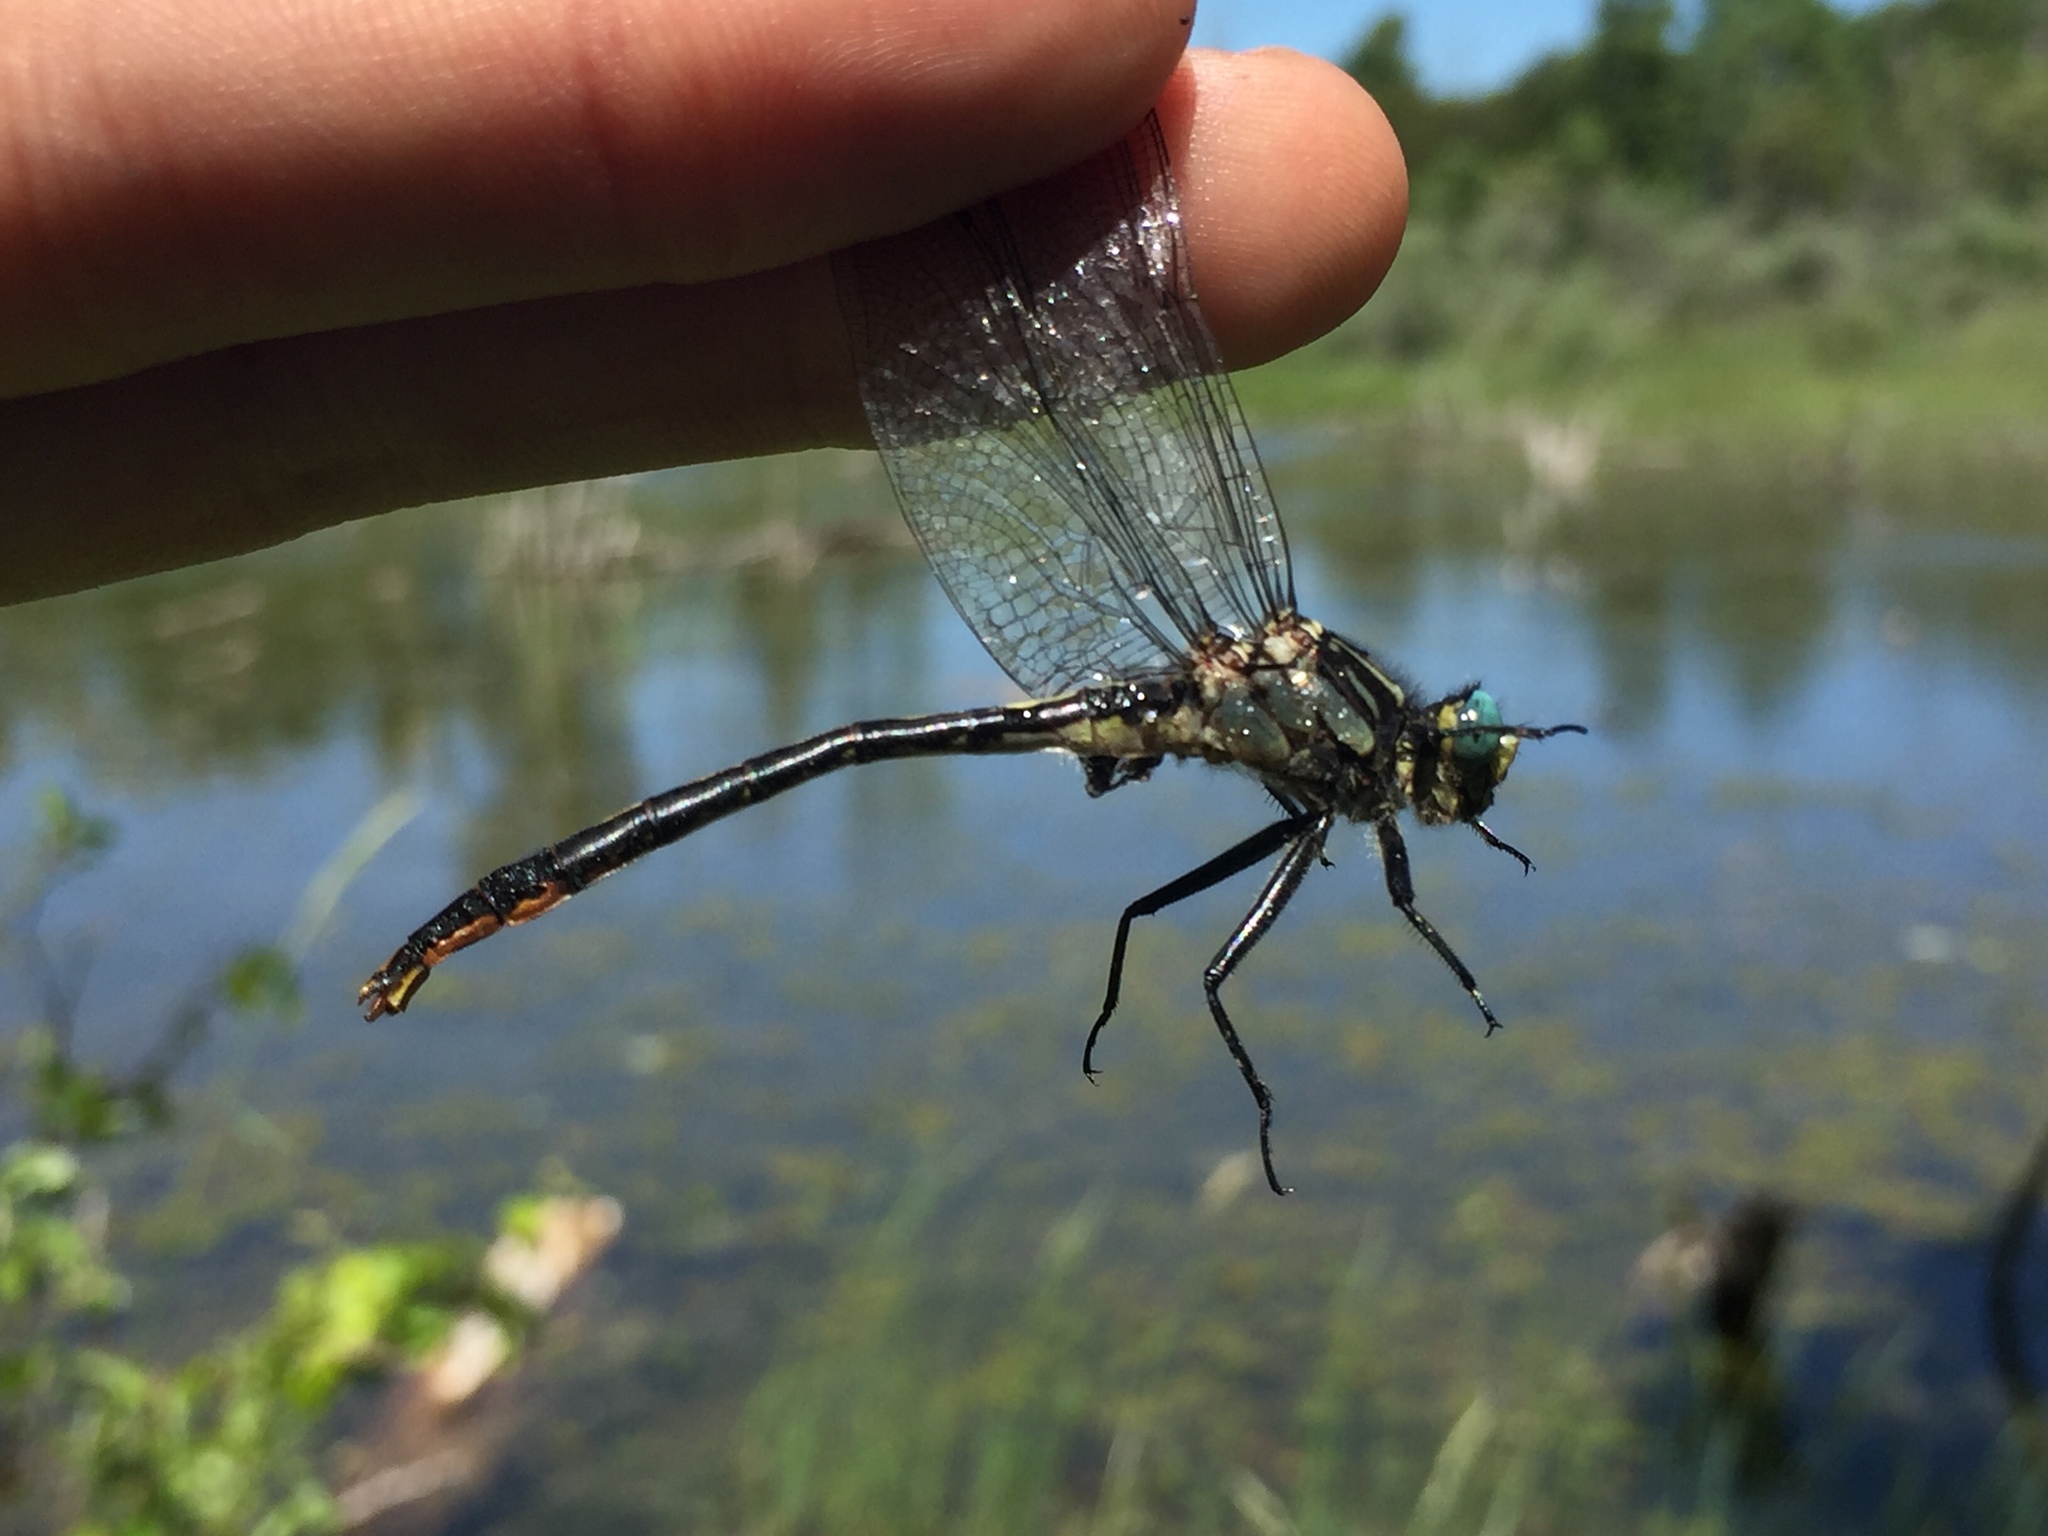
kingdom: Animalia
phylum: Arthropoda
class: Insecta
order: Odonata
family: Gomphidae
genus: Arigomphus
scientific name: Arigomphus furcifer
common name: Lilypad clubtail
